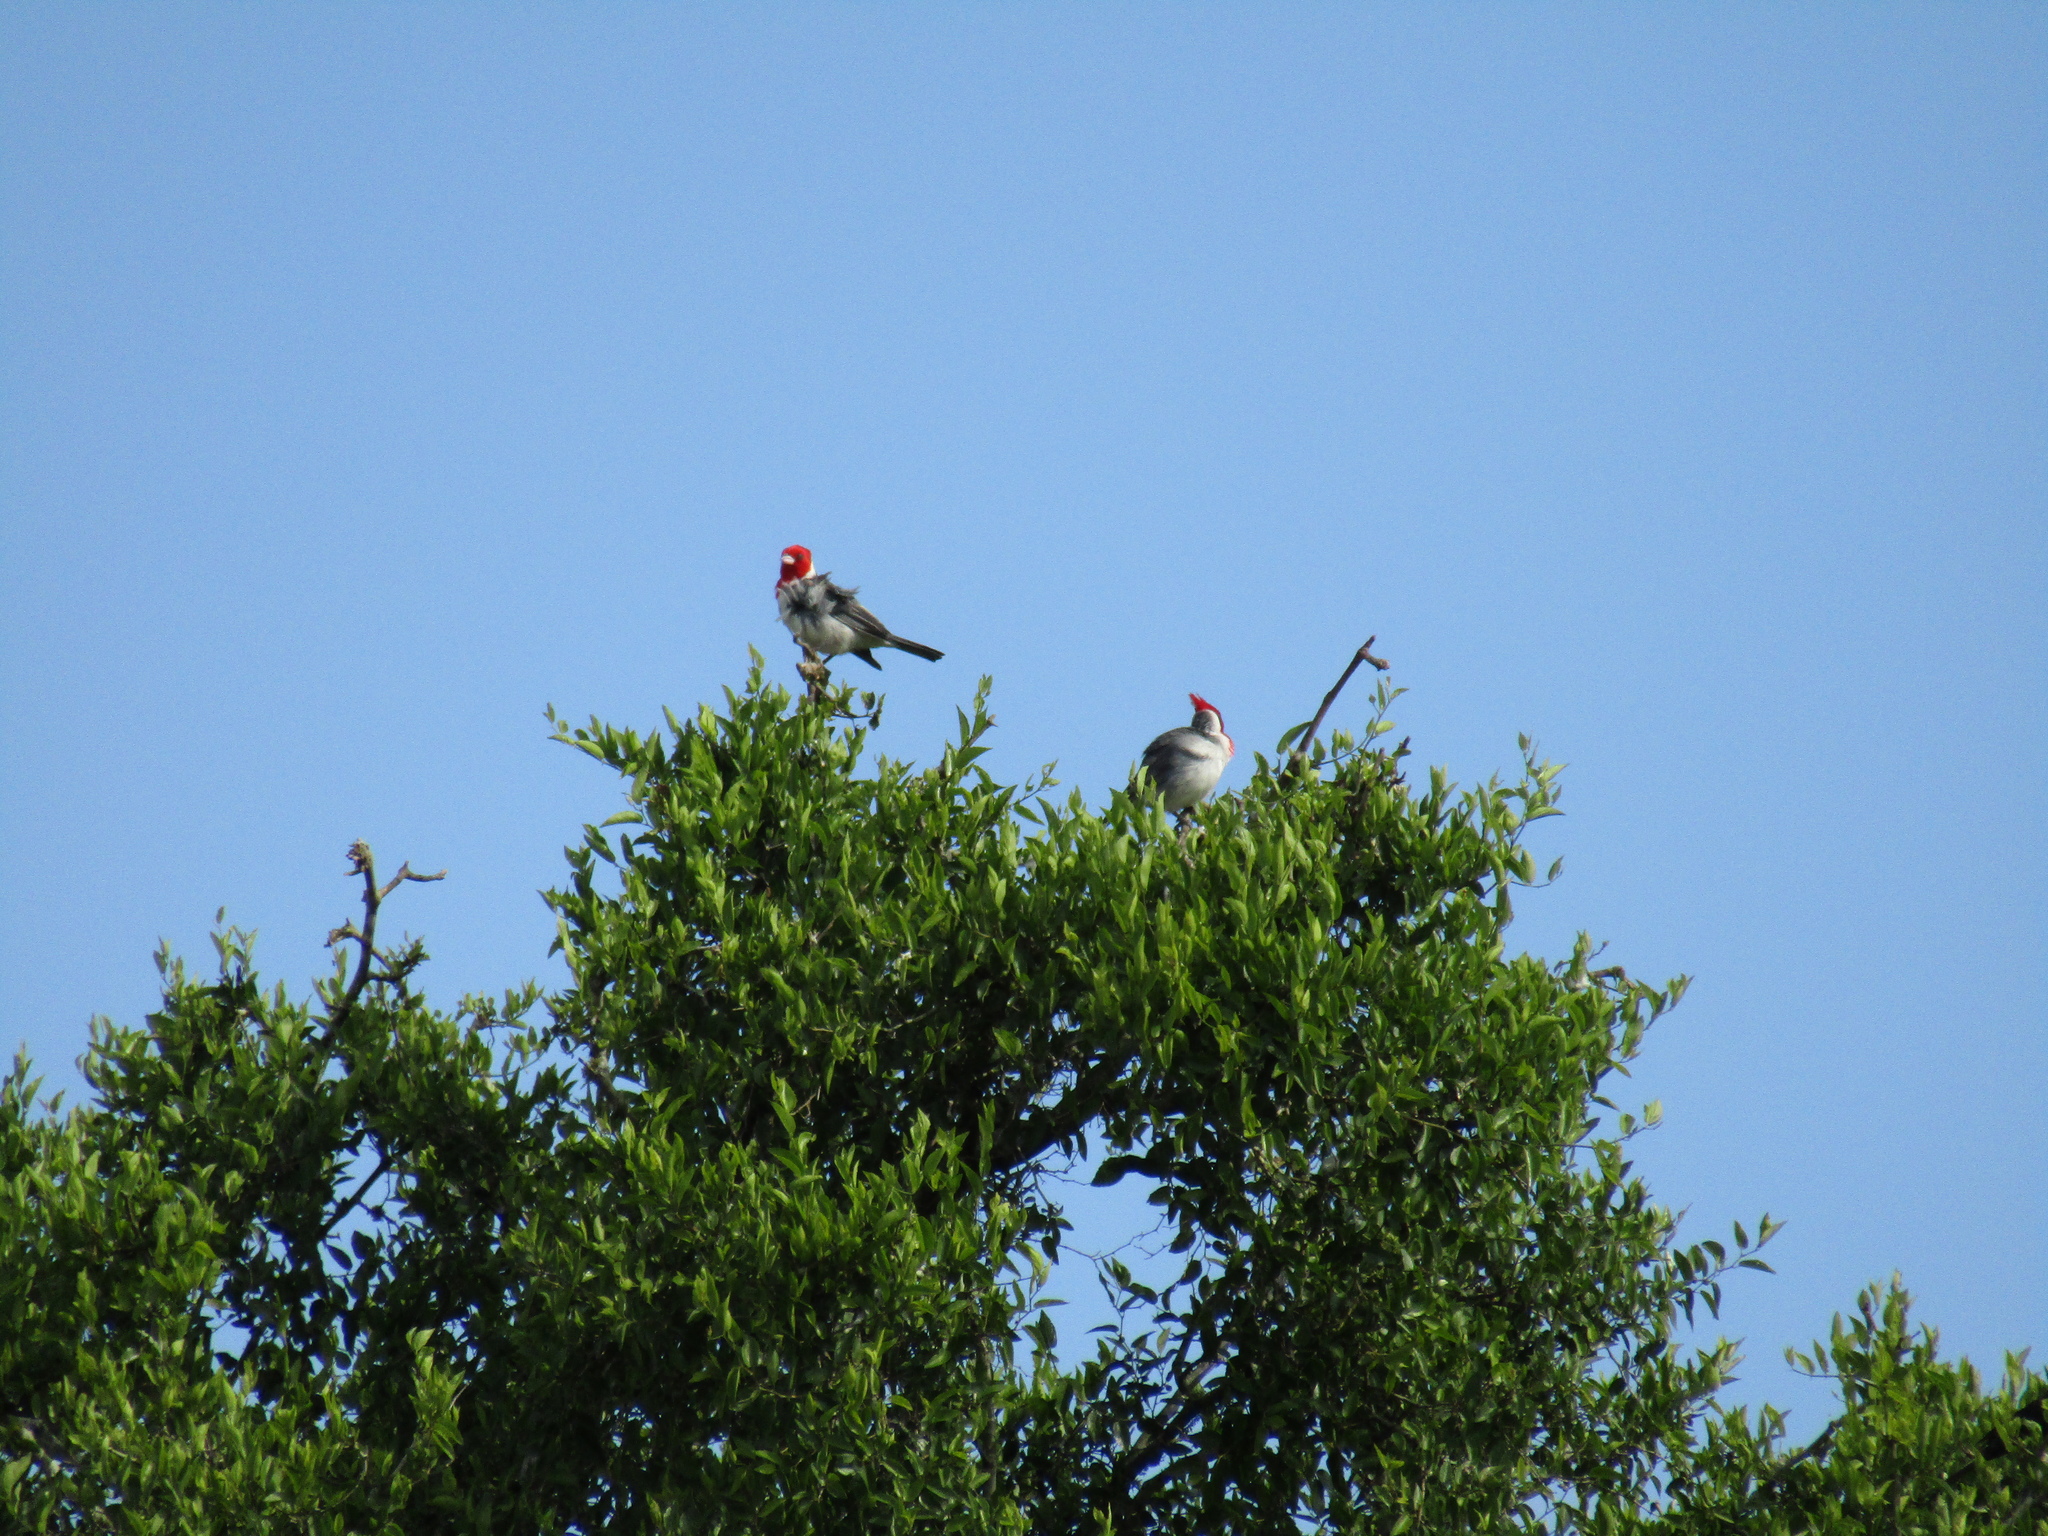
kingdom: Animalia
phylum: Chordata
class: Aves
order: Passeriformes
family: Thraupidae
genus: Paroaria
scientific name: Paroaria coronata
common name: Red-crested cardinal
